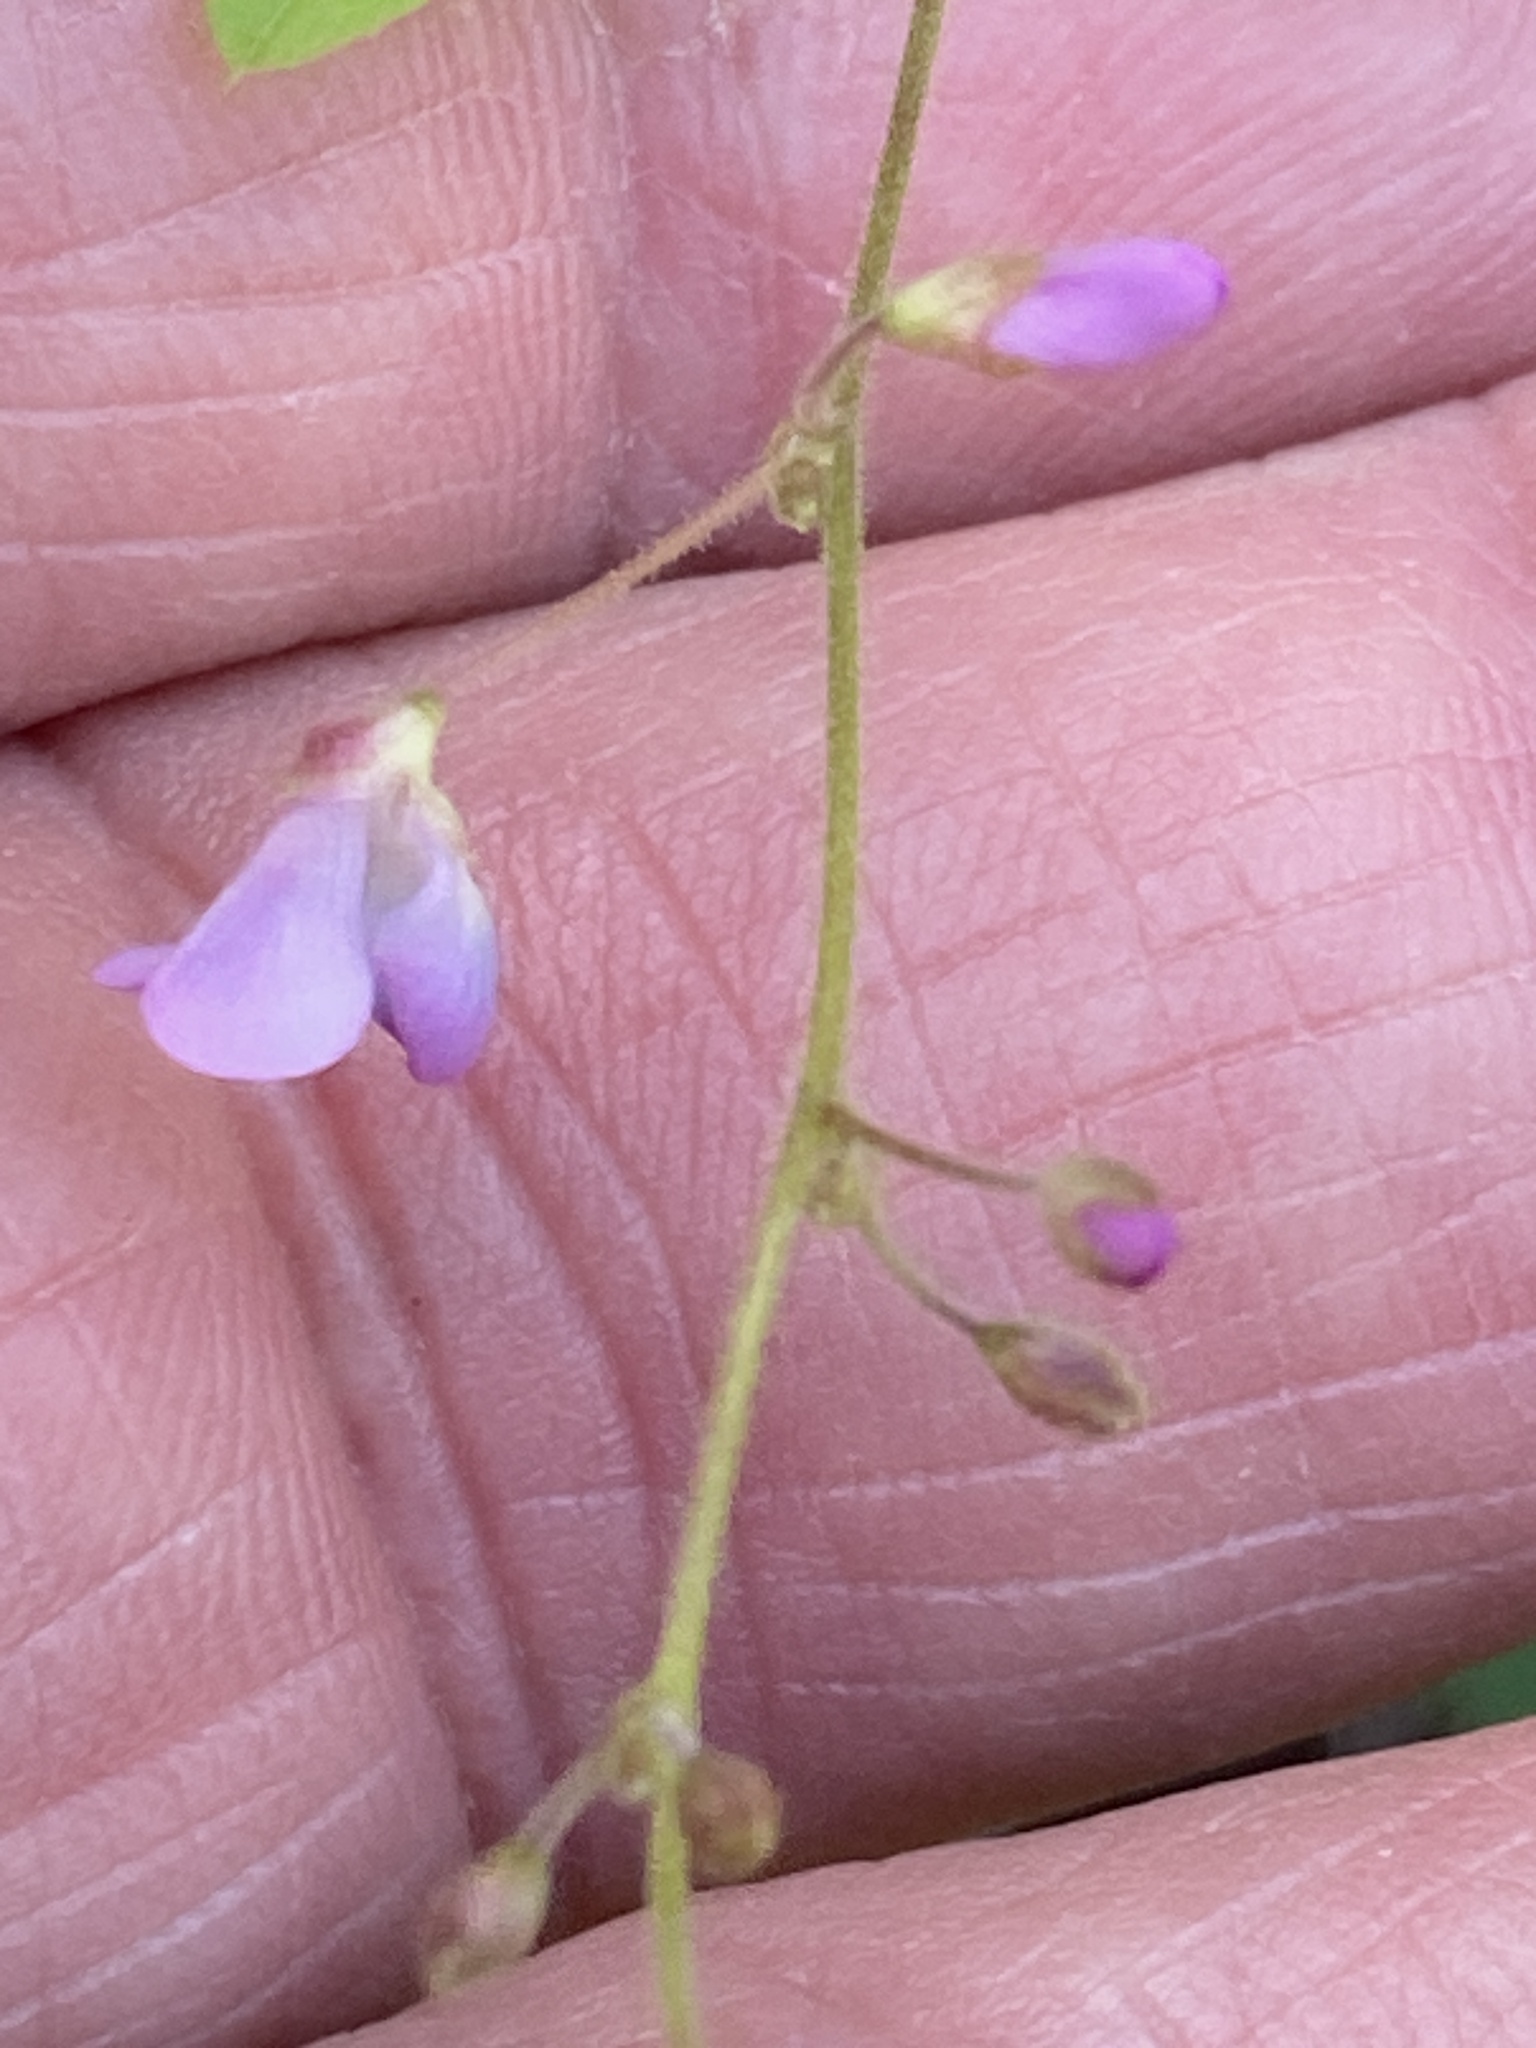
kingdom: Plantae
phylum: Tracheophyta
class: Magnoliopsida
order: Fabales
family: Fabaceae
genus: Desmodium
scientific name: Desmodium psilophyllum
